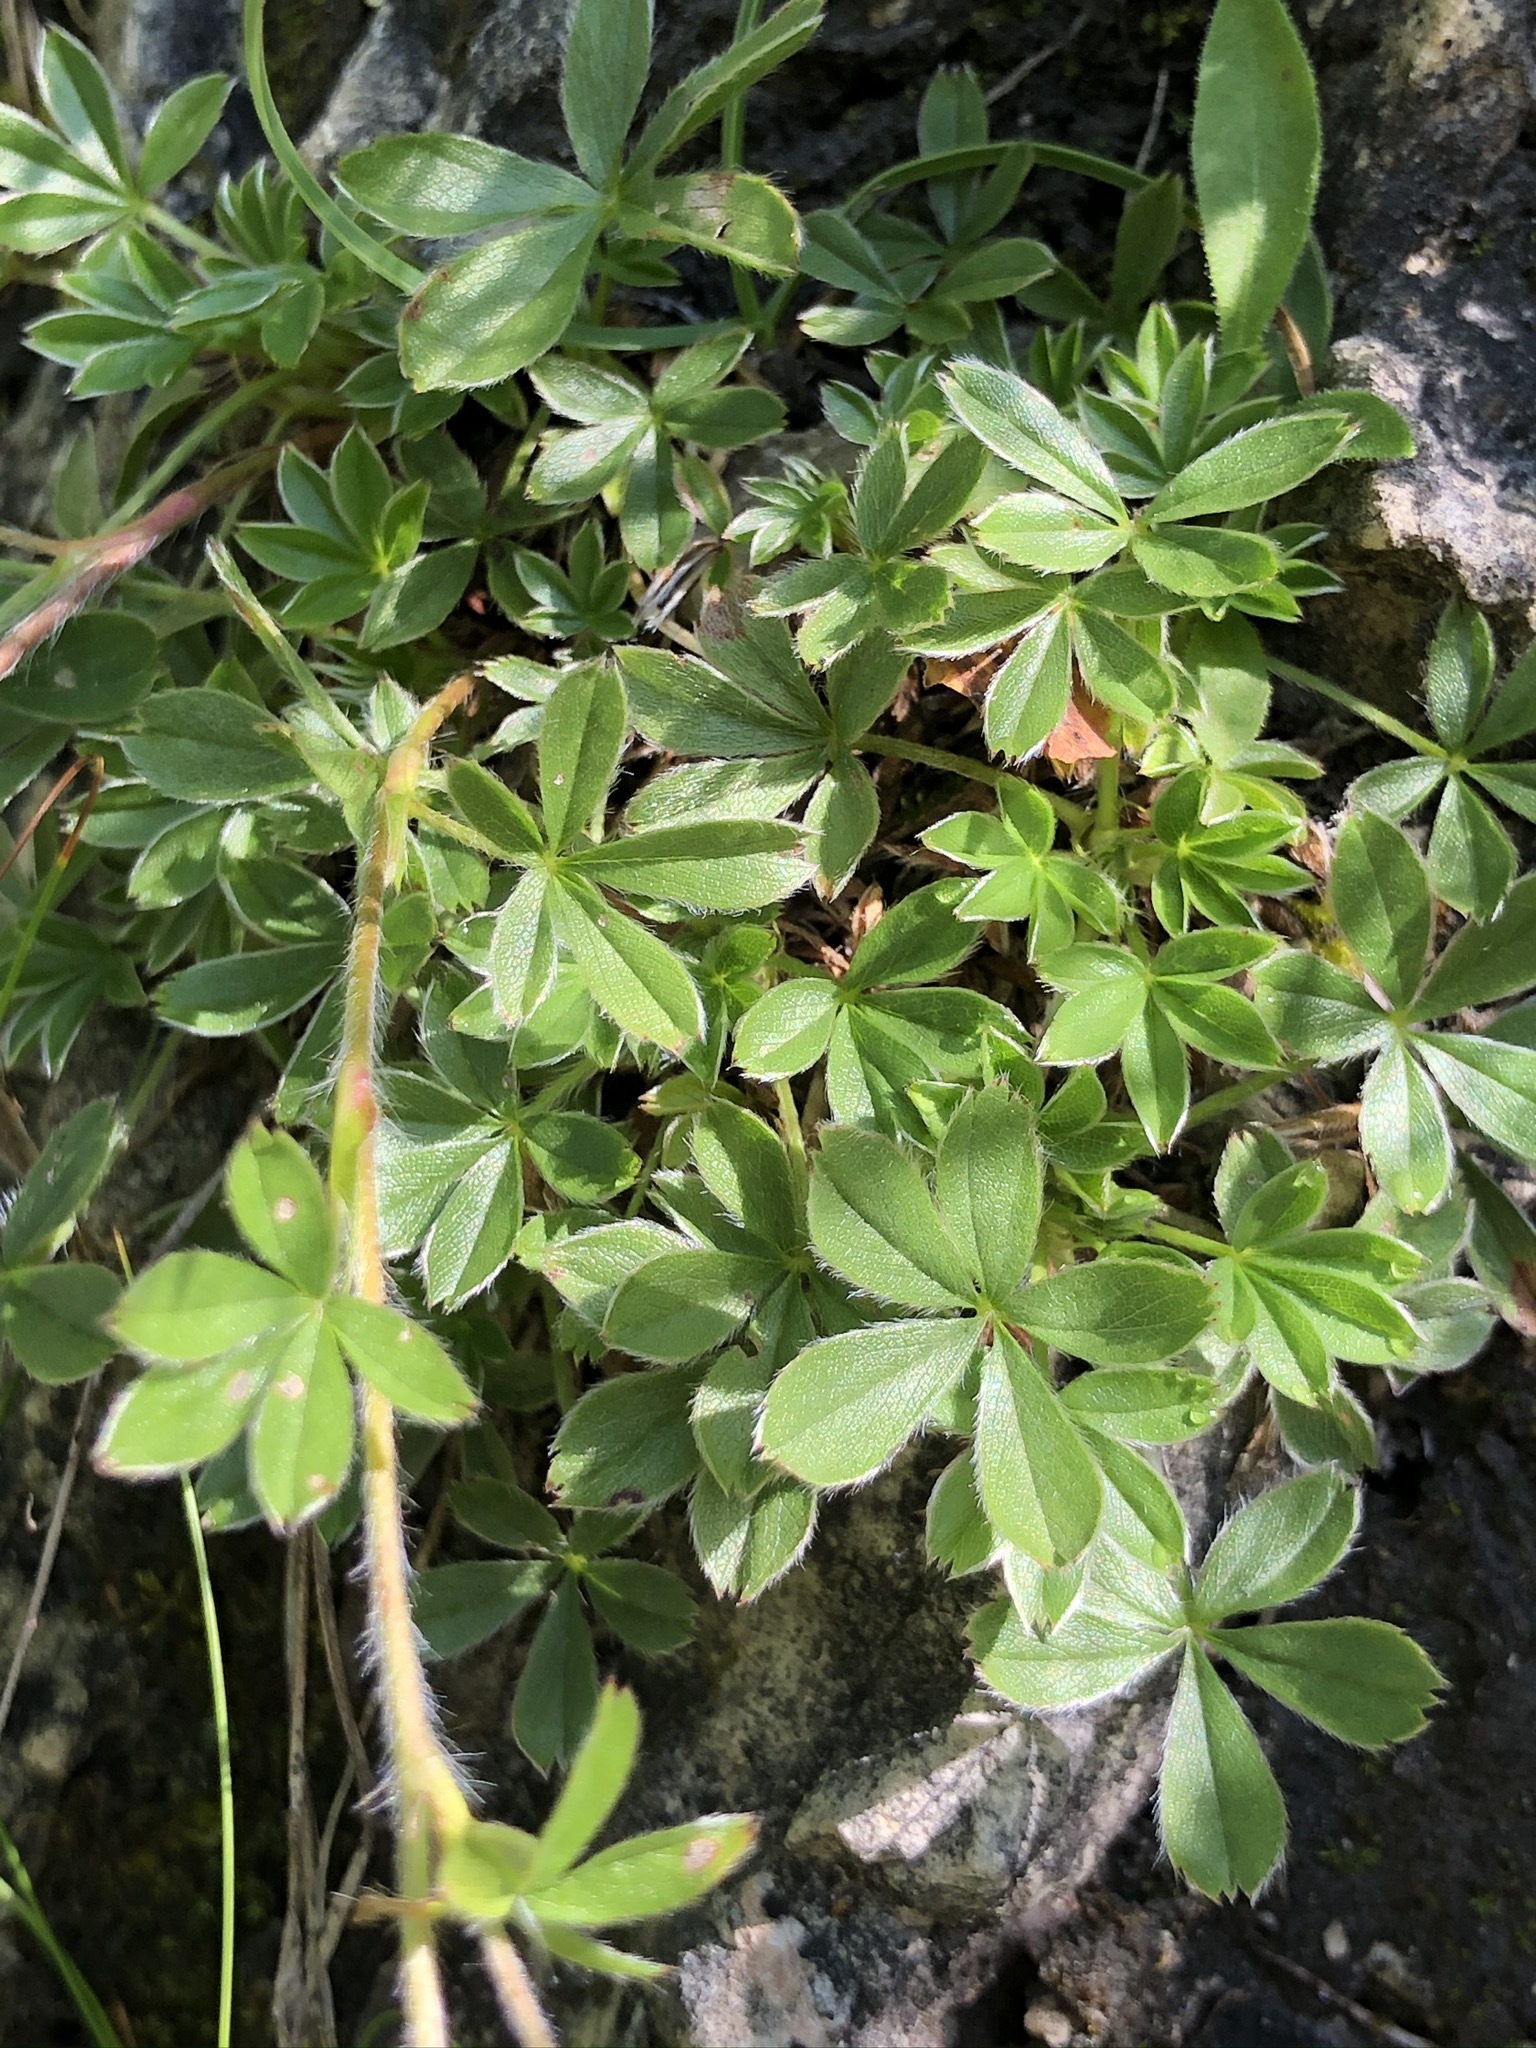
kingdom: Plantae
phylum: Tracheophyta
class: Magnoliopsida
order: Rosales
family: Rosaceae
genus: Potentilla
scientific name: Potentilla caulescens
